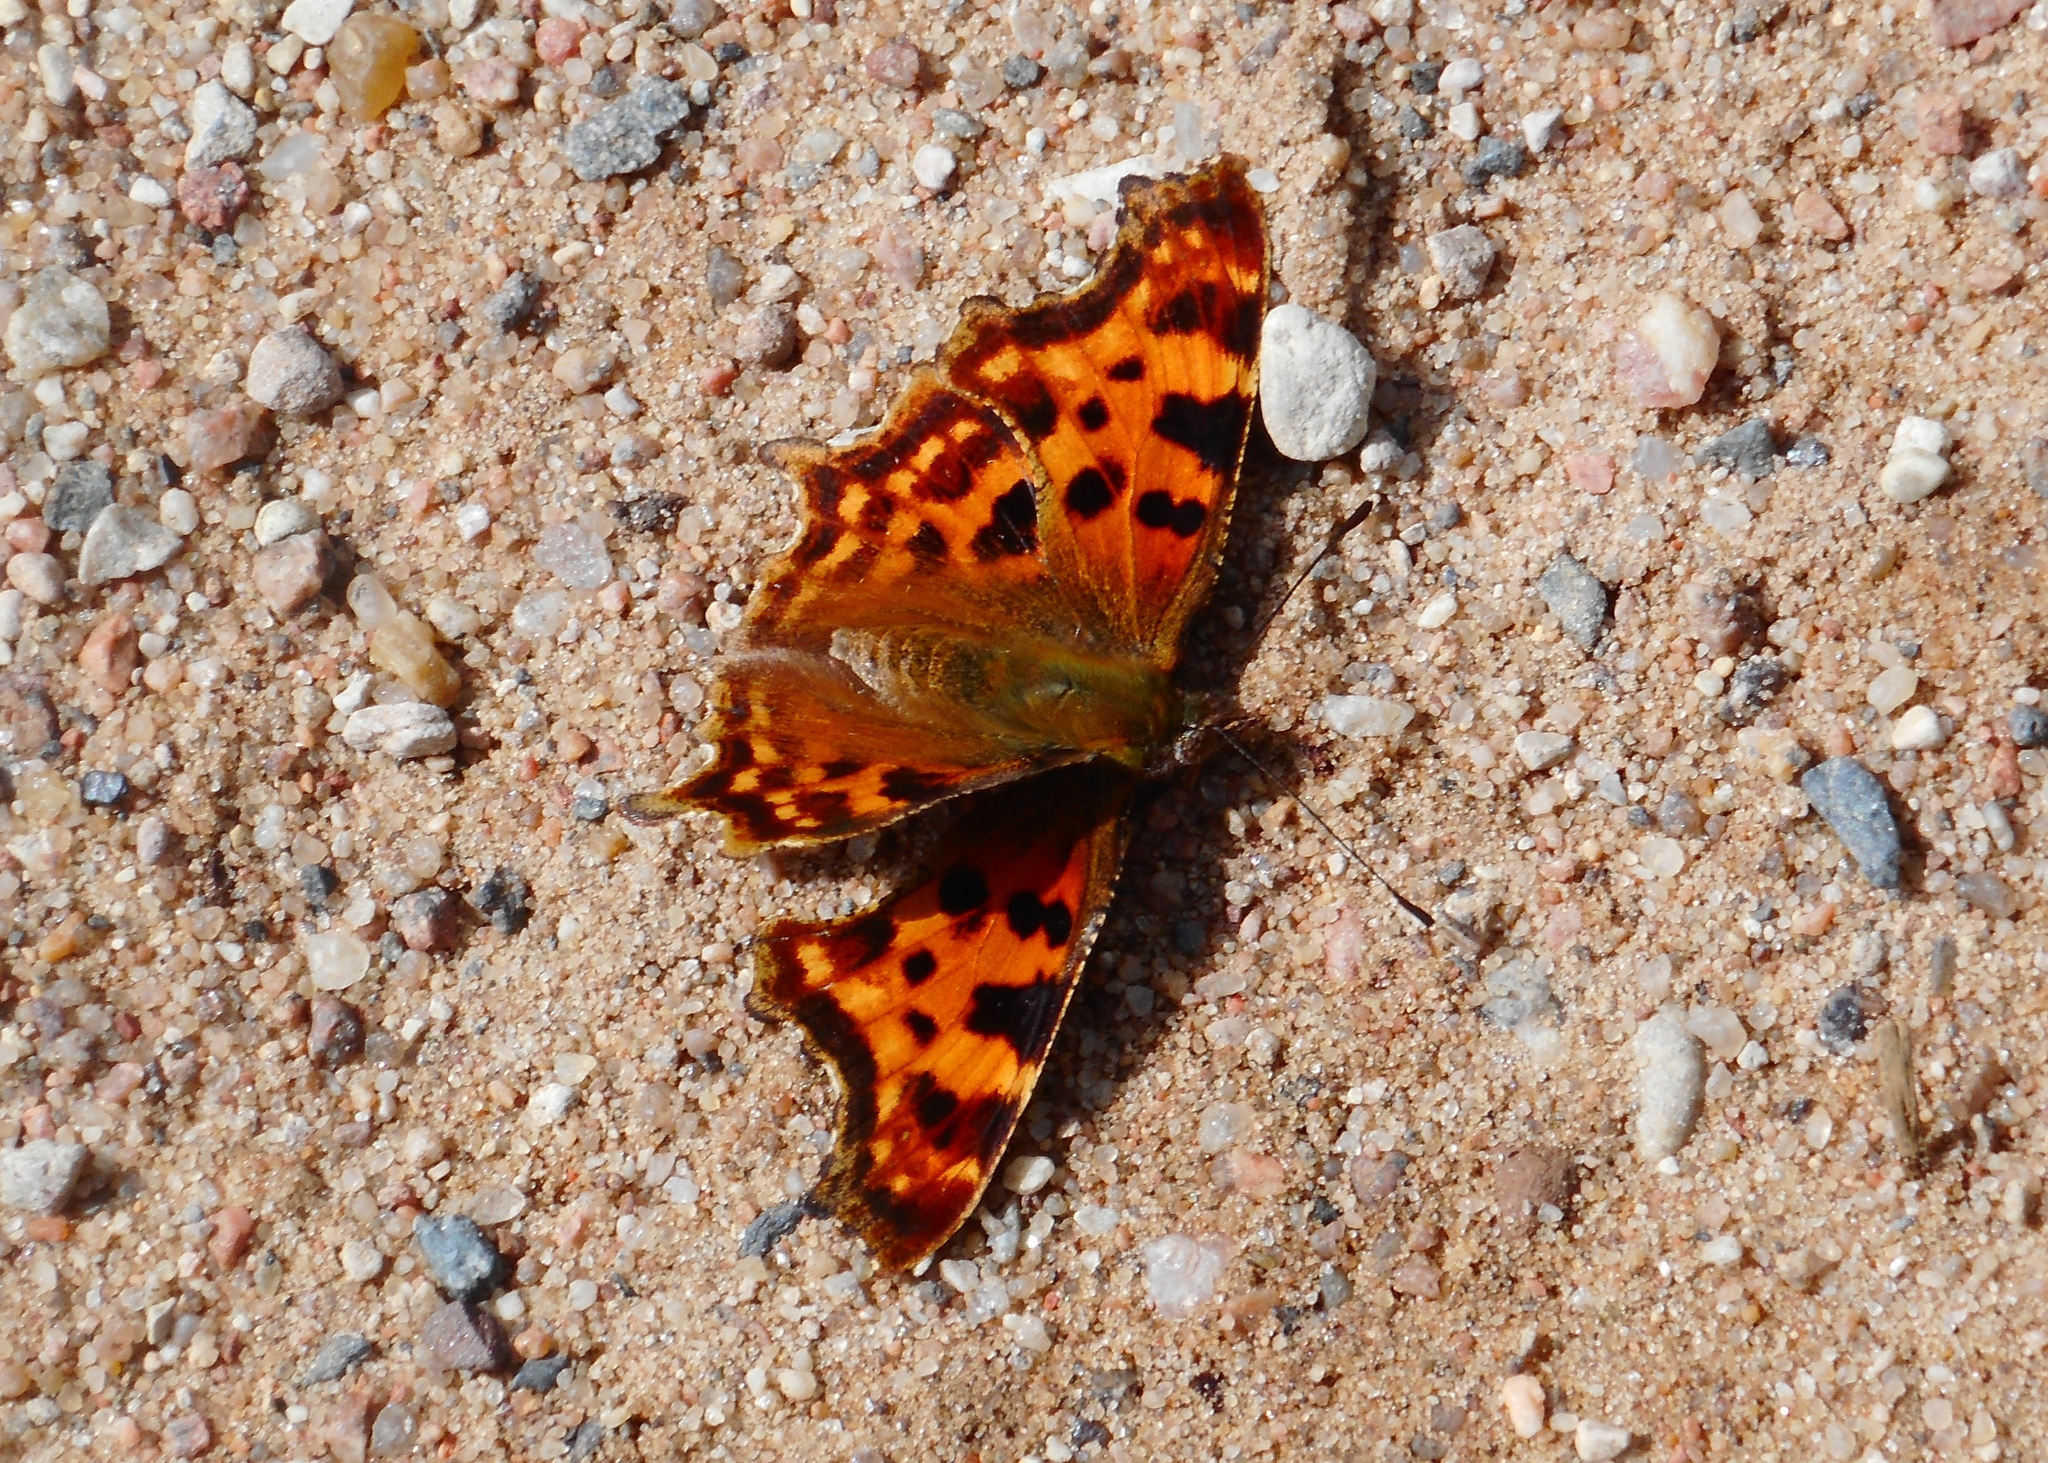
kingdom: Animalia
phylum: Arthropoda
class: Insecta
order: Lepidoptera
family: Nymphalidae
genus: Polygonia
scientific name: Polygonia c-album
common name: Comma
